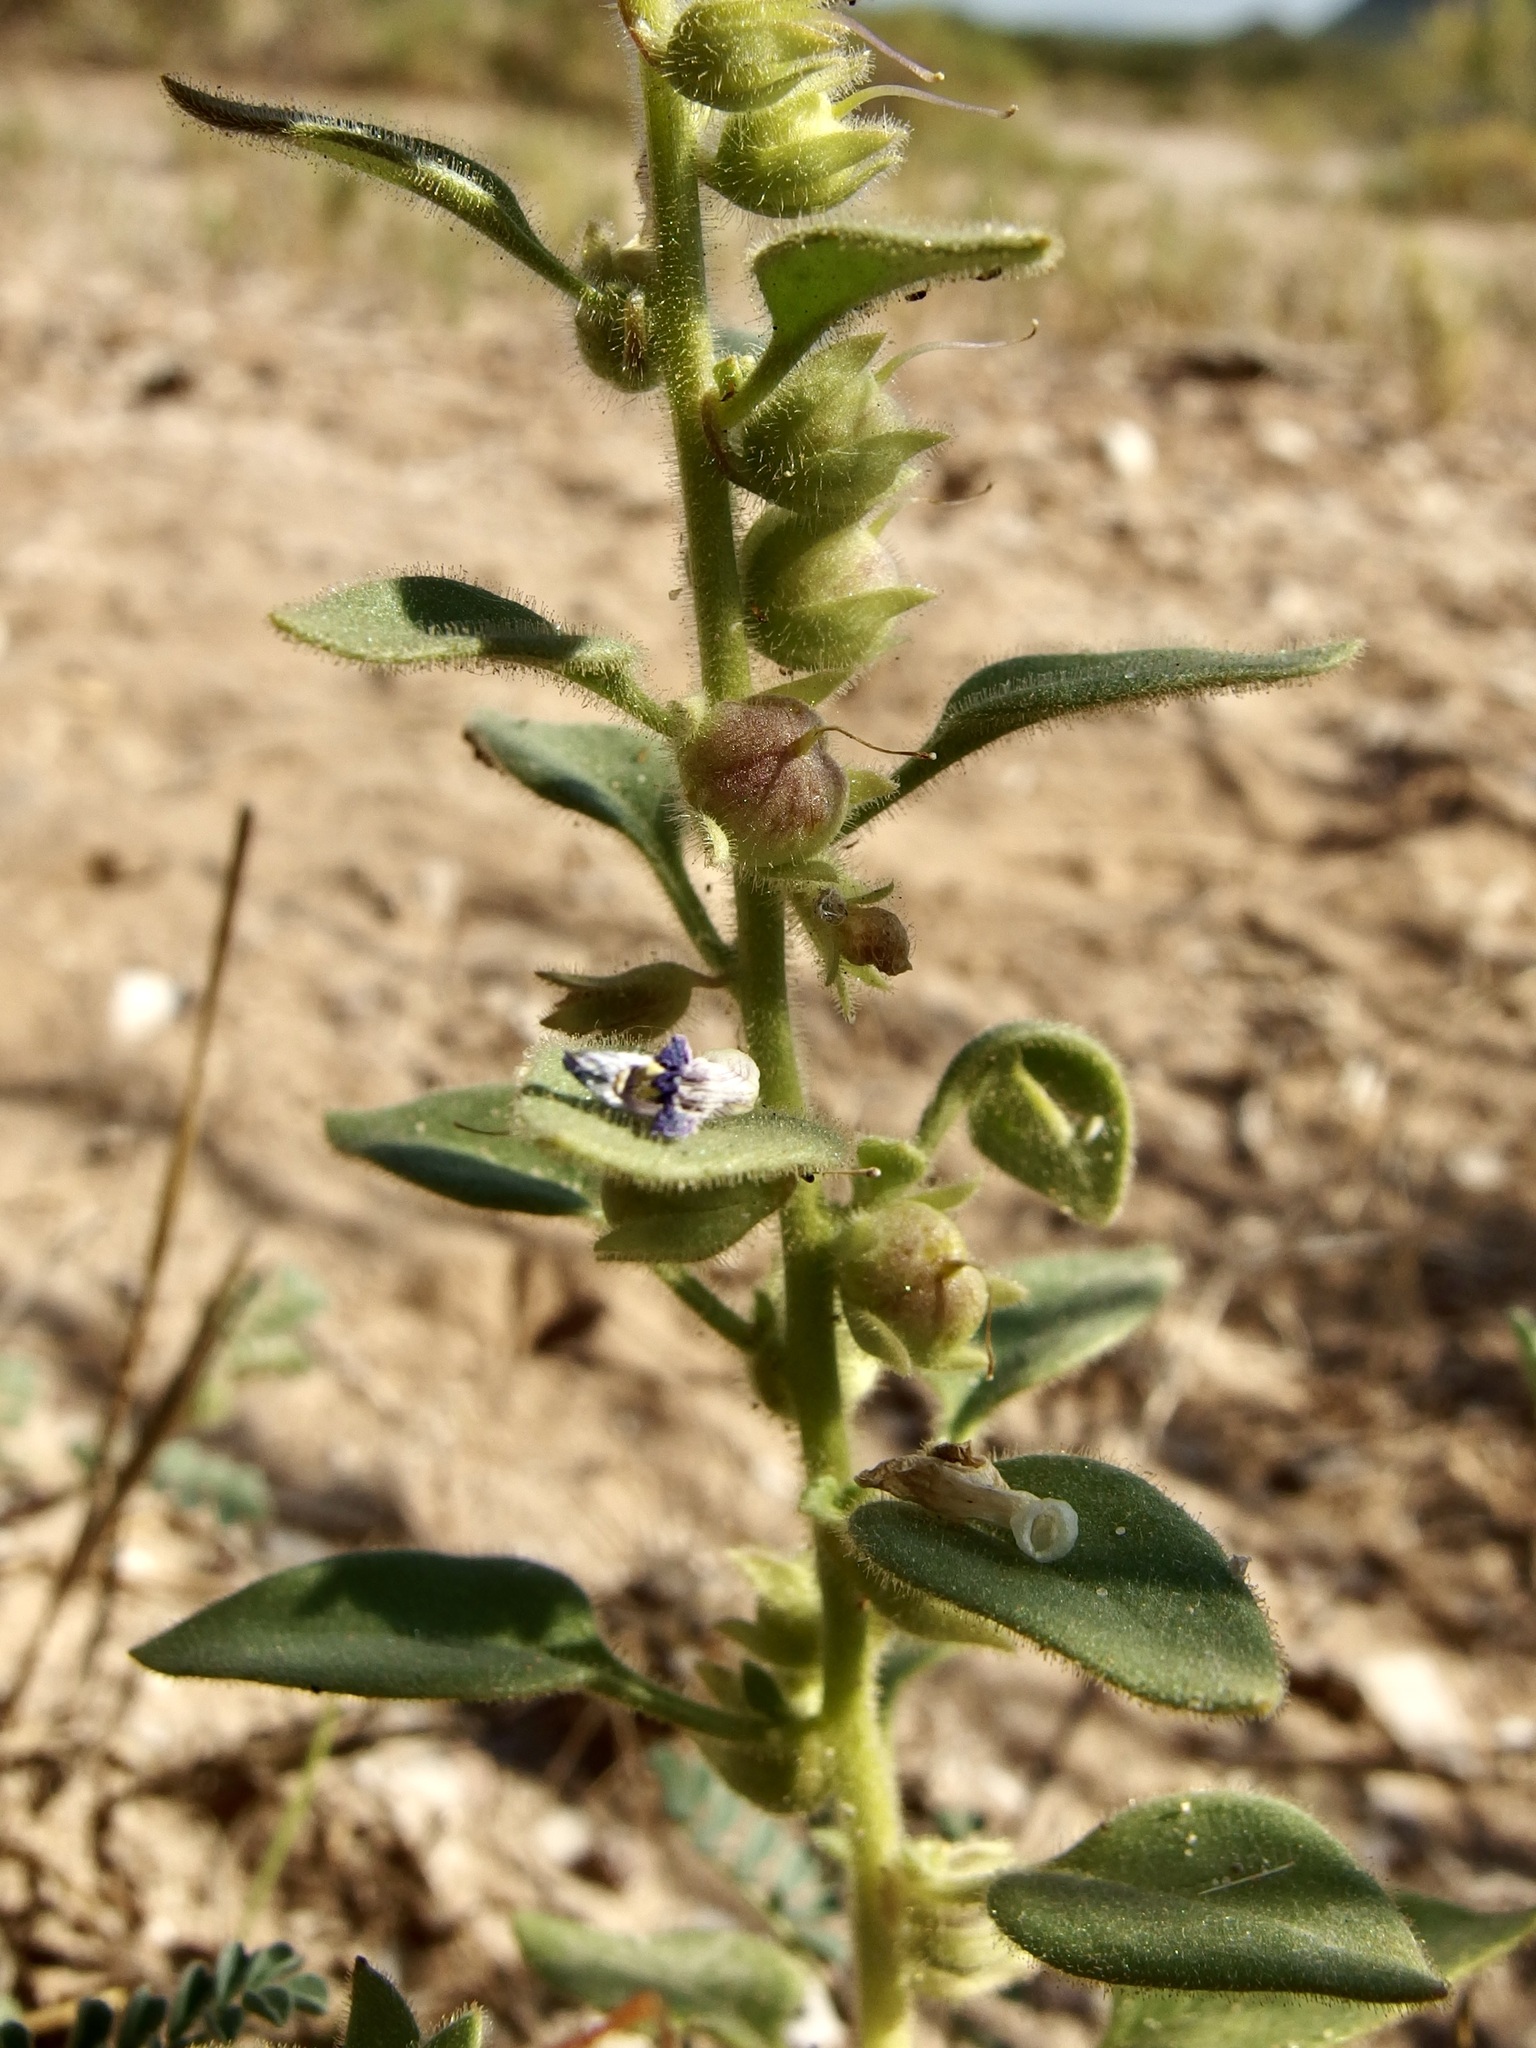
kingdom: Plantae
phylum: Tracheophyta
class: Magnoliopsida
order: Lamiales
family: Plantaginaceae
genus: Pseudorontium
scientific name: Pseudorontium cyathiferum
